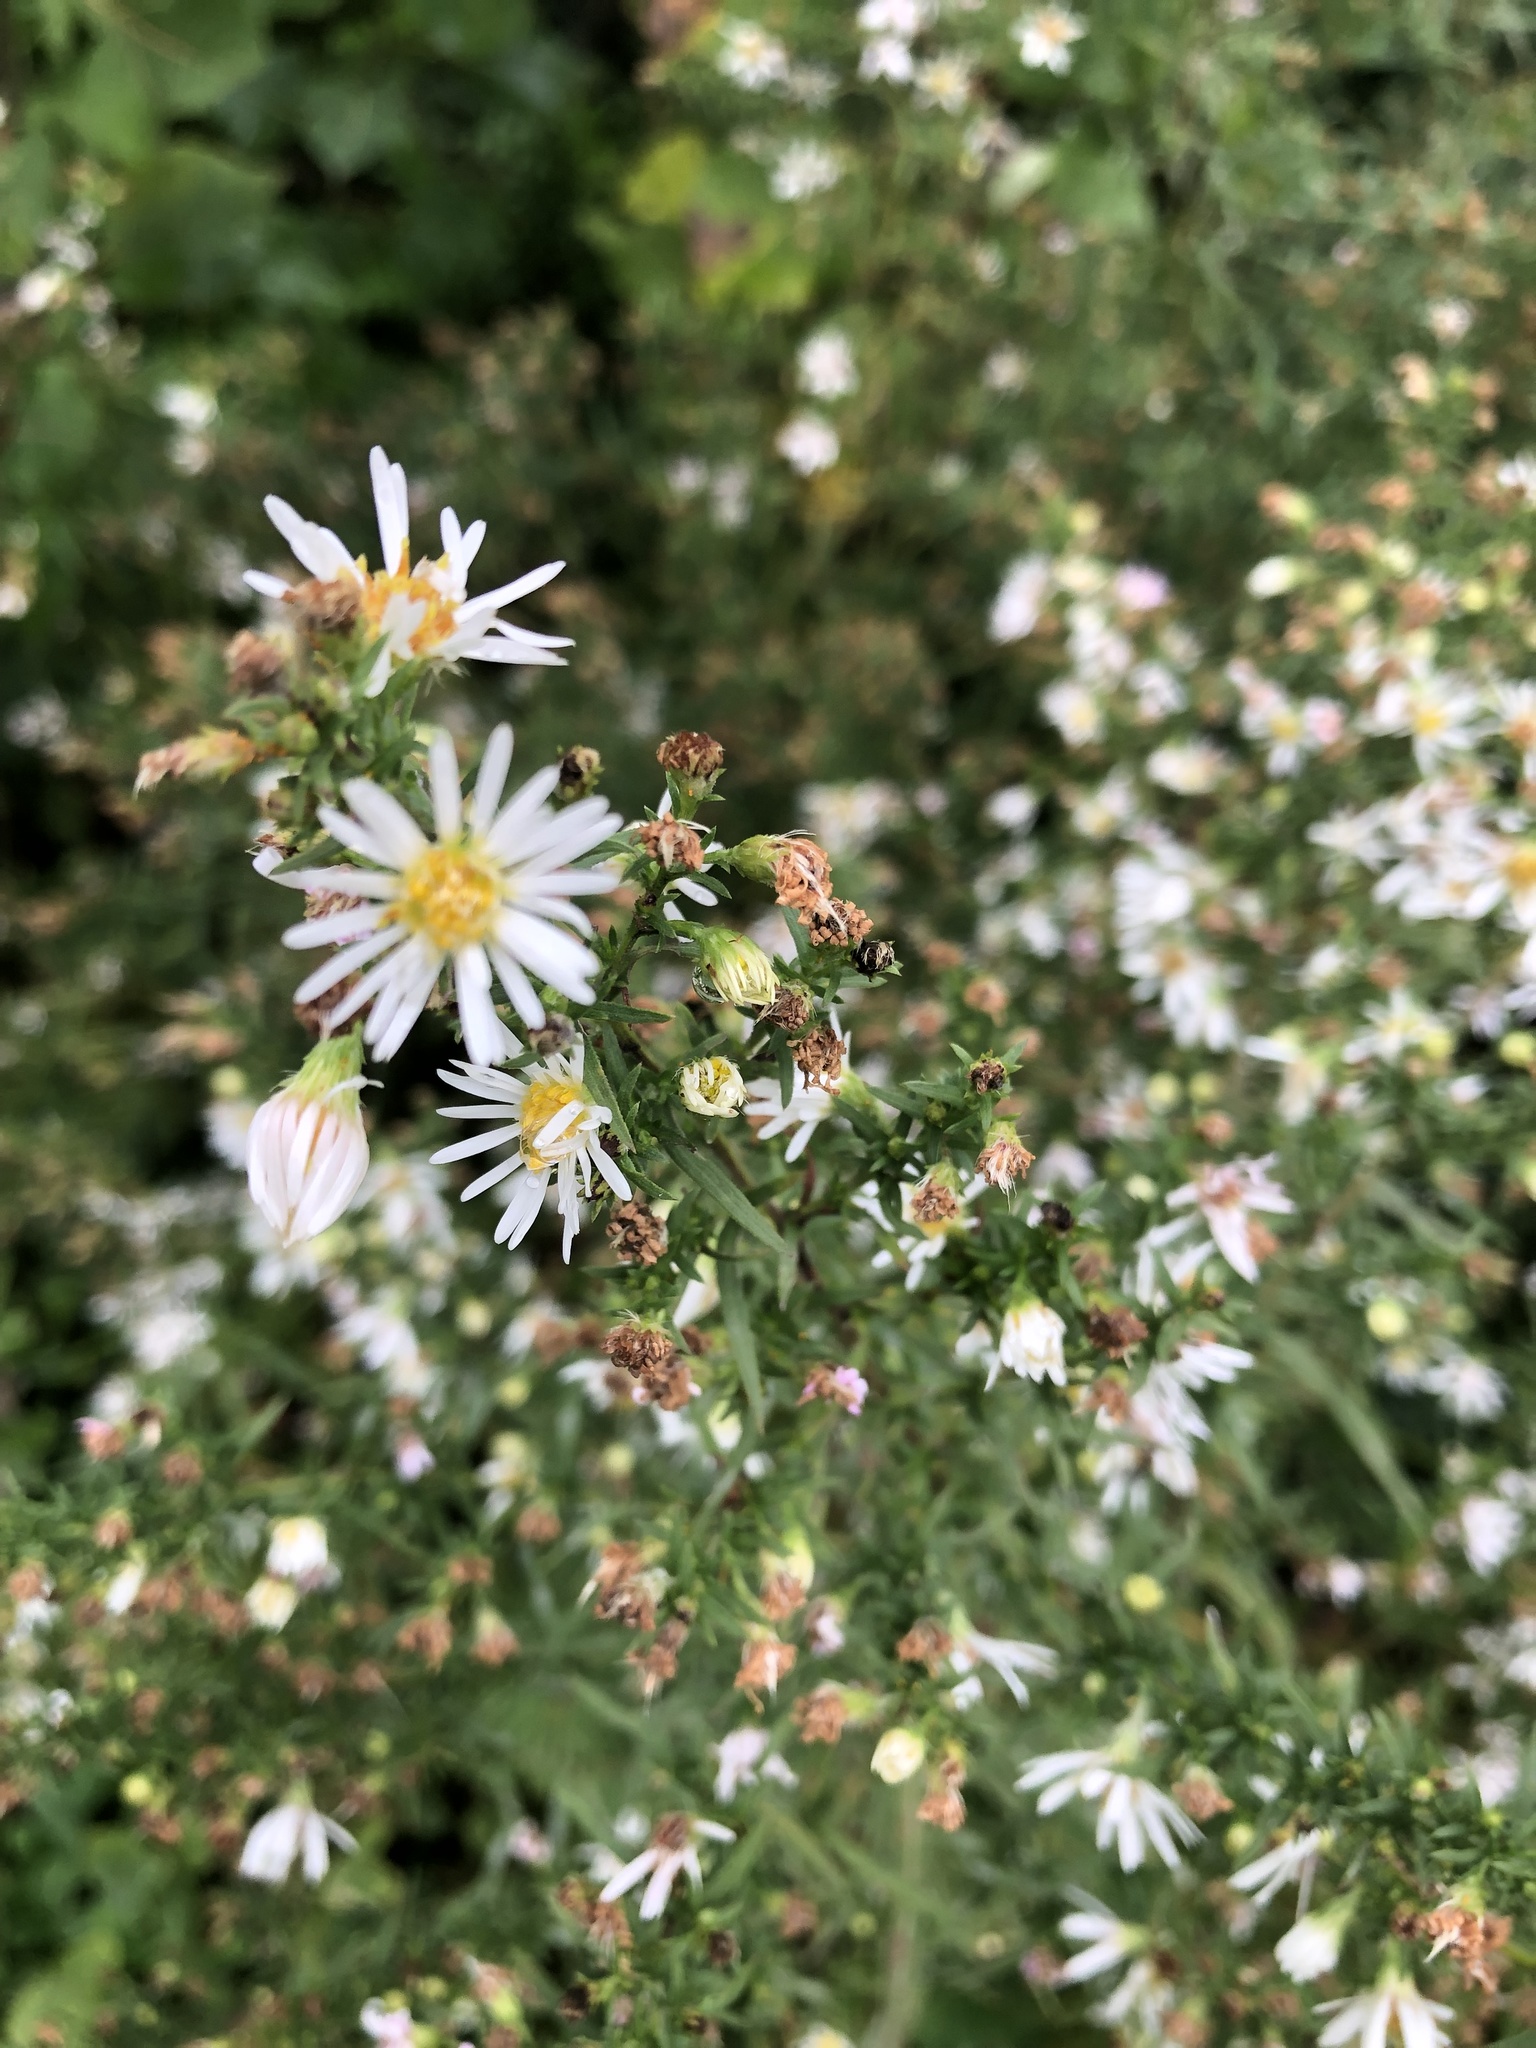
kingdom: Plantae
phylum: Tracheophyta
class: Magnoliopsida
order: Asterales
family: Asteraceae
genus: Symphyotrichum
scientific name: Symphyotrichum lanceolatum
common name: Panicled aster
